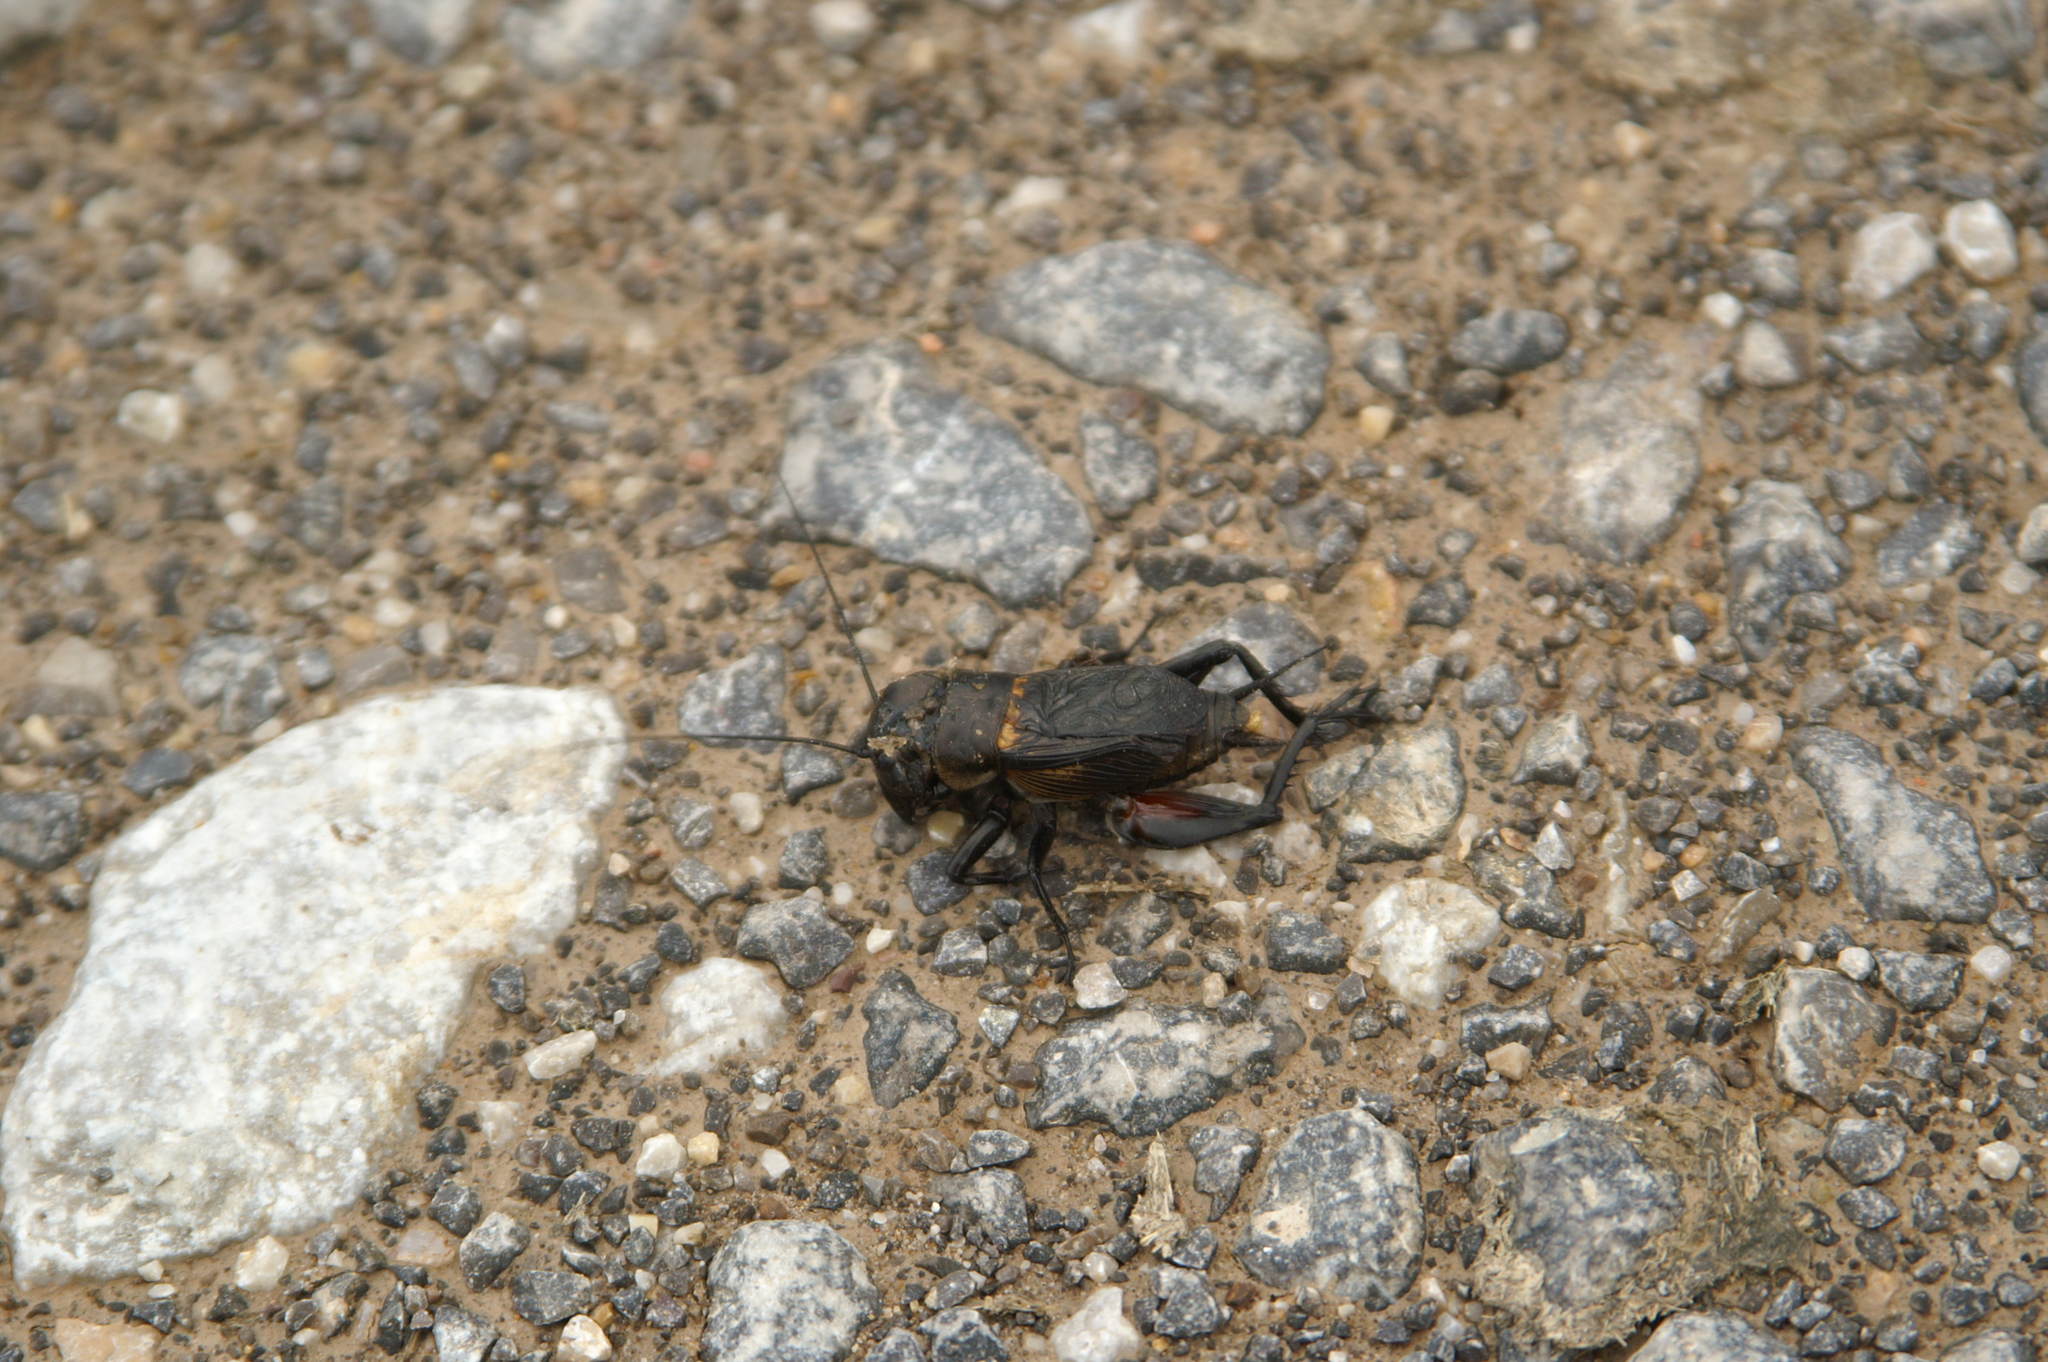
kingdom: Animalia
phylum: Arthropoda
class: Insecta
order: Orthoptera
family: Gryllidae
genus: Gryllus
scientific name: Gryllus campestris
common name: Field cricket
